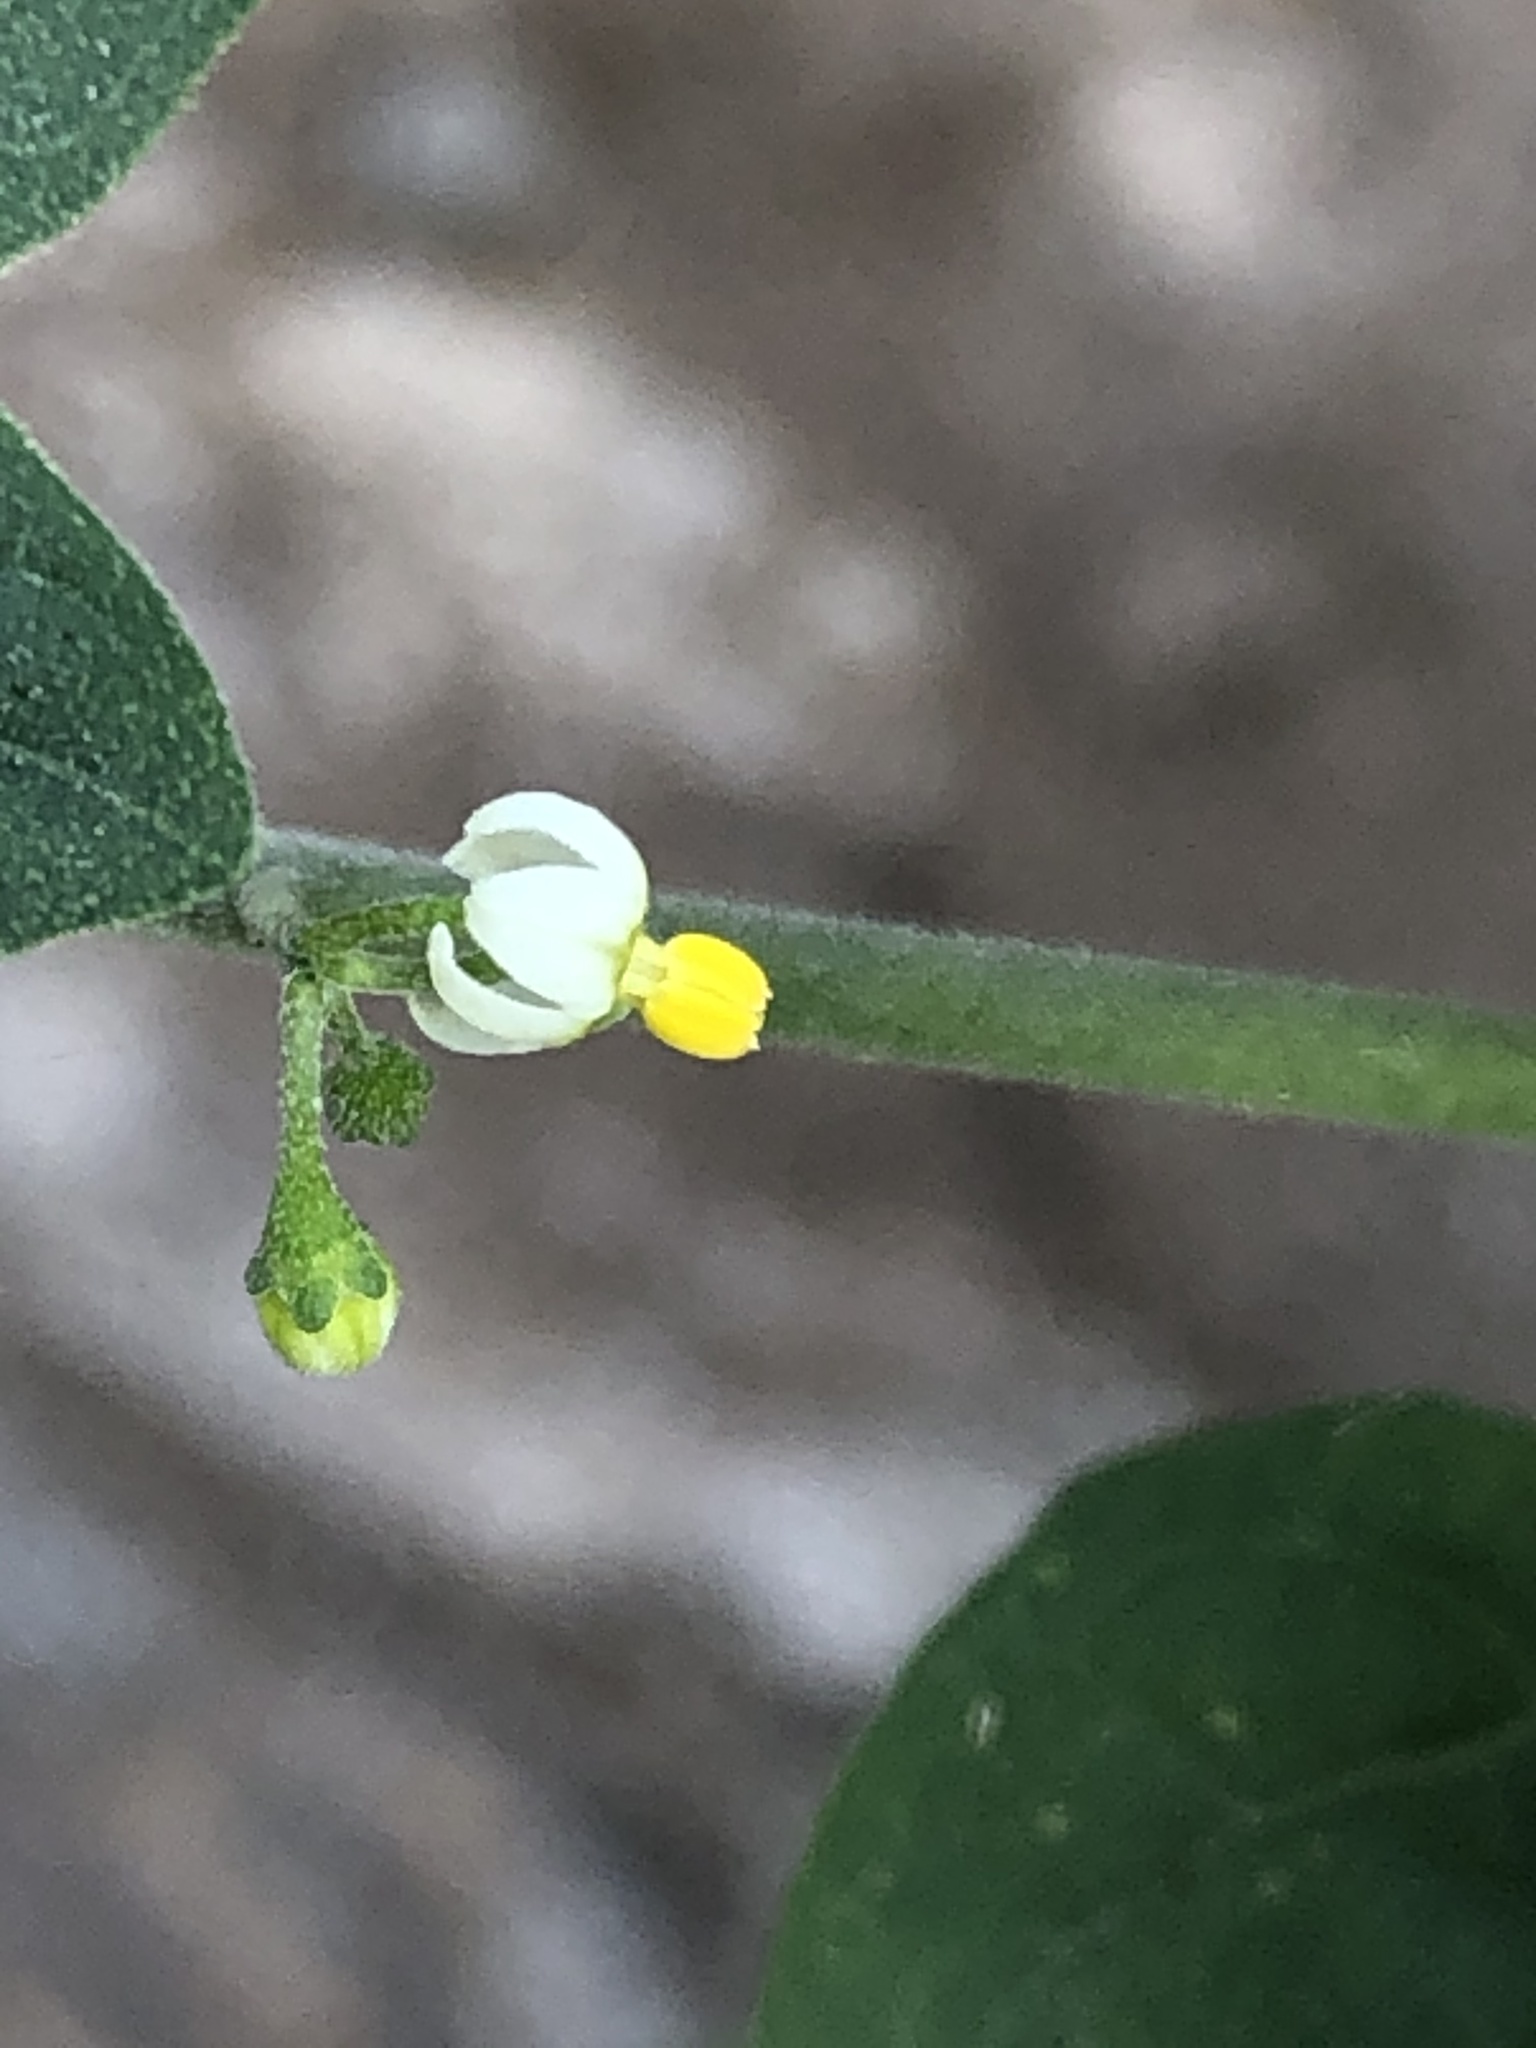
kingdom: Plantae
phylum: Tracheophyta
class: Magnoliopsida
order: Solanales
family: Solanaceae
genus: Solanum
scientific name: Solanum americanum
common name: American black nightshade
